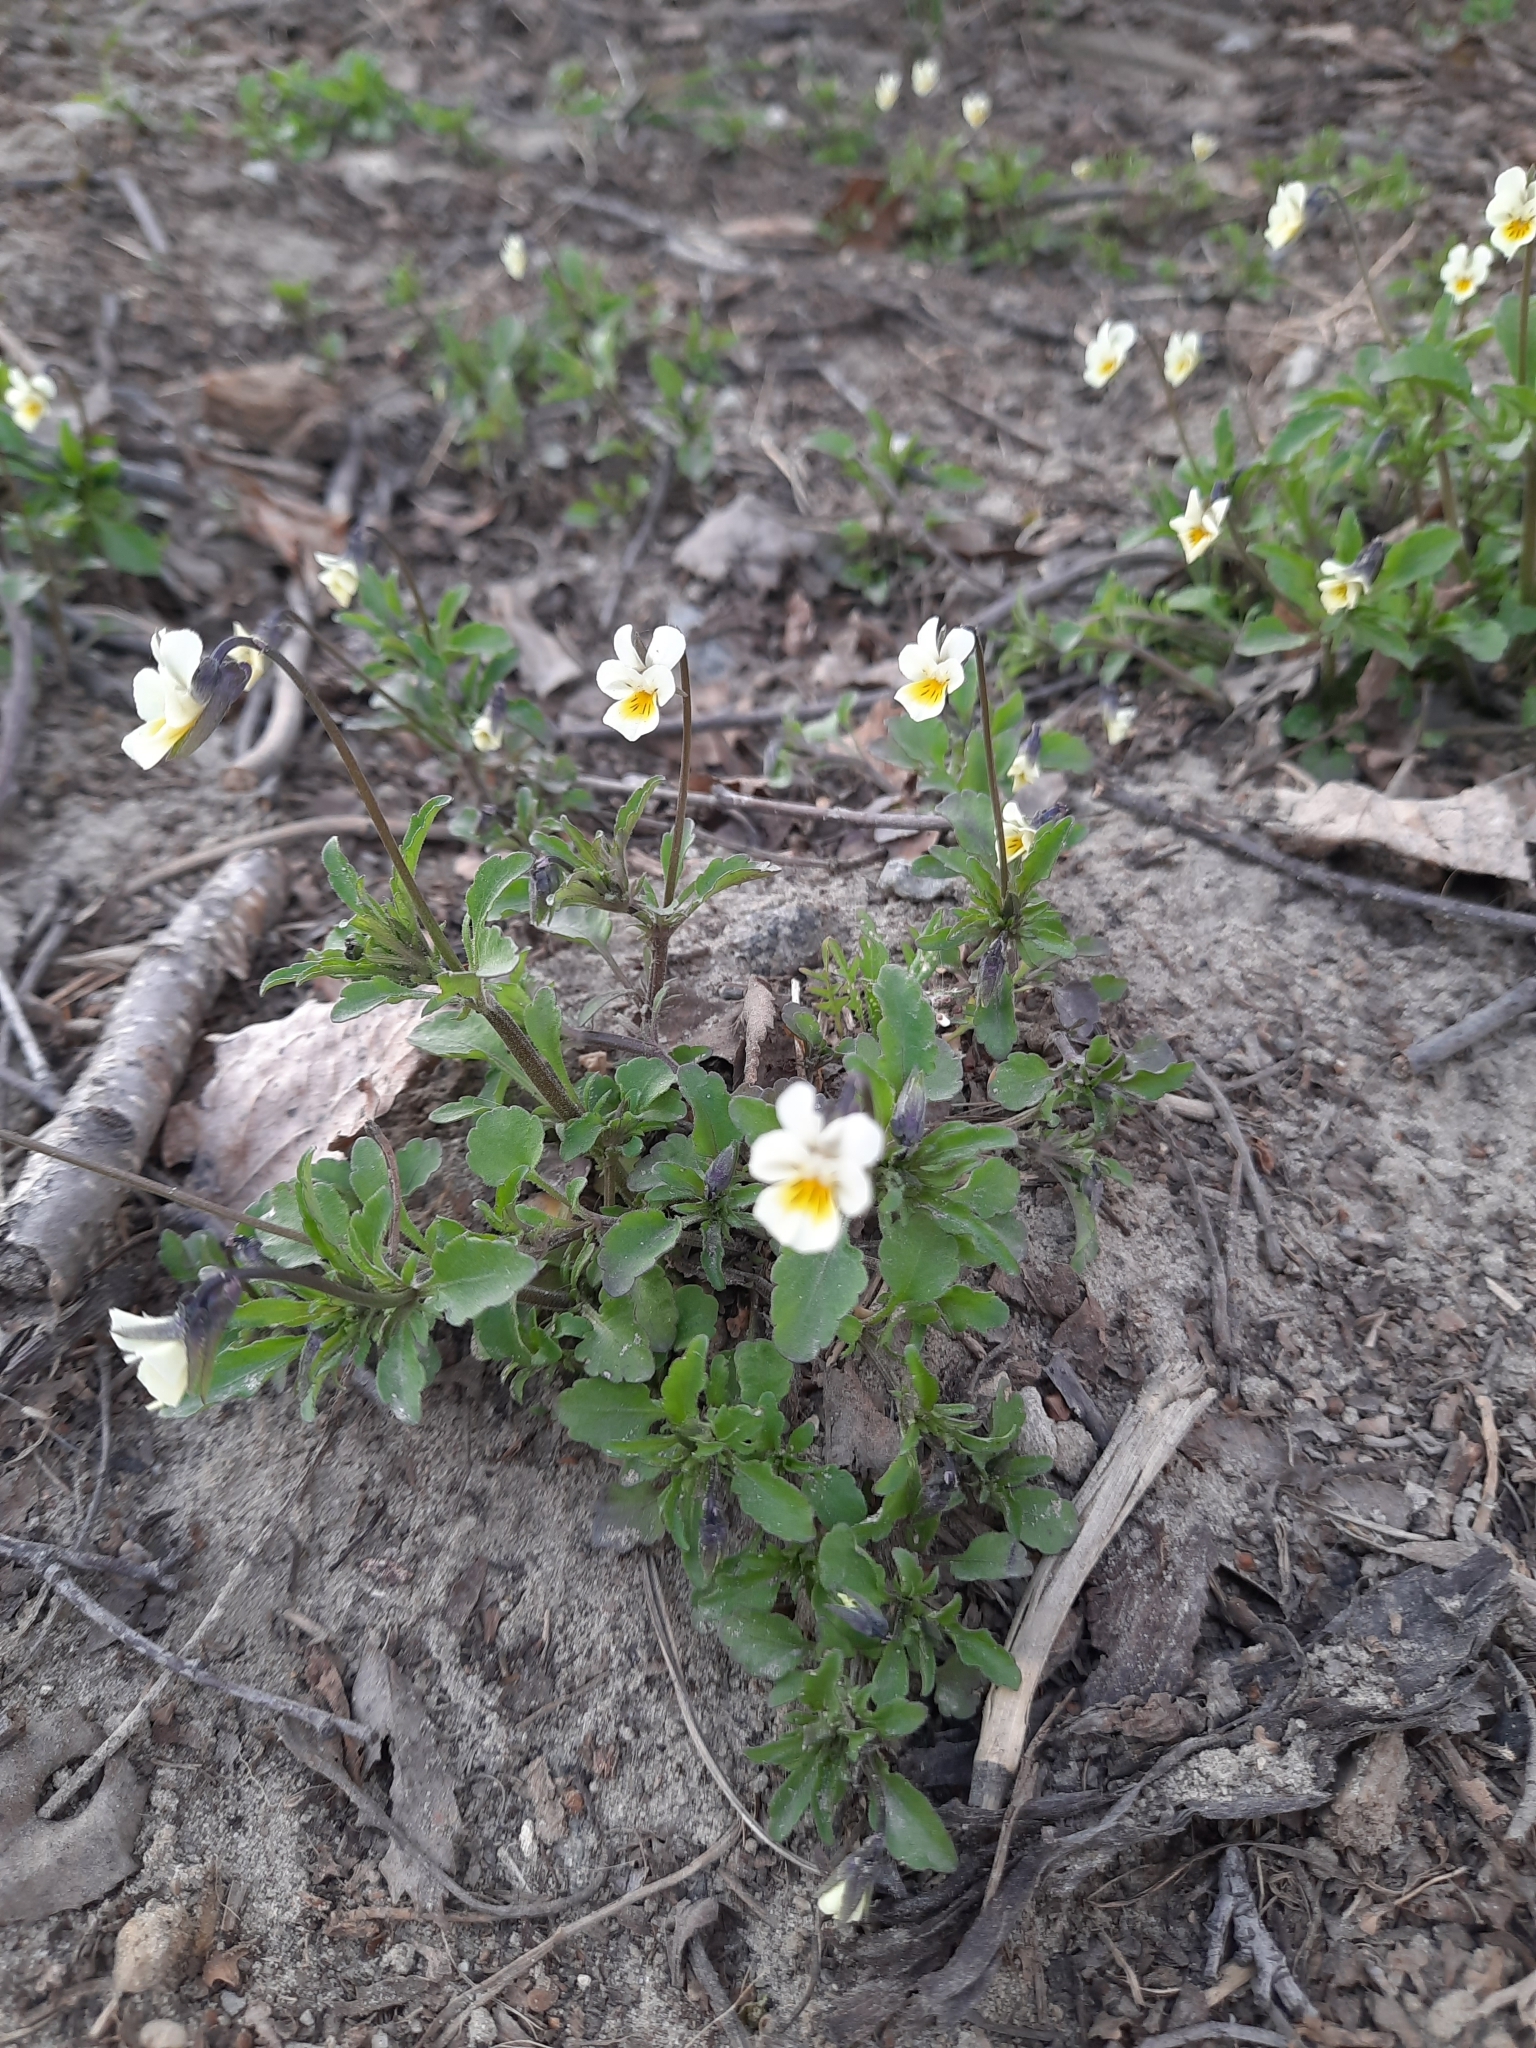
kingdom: Plantae
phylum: Tracheophyta
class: Magnoliopsida
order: Malpighiales
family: Violaceae
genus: Viola
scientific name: Viola arvensis
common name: Field pansy
